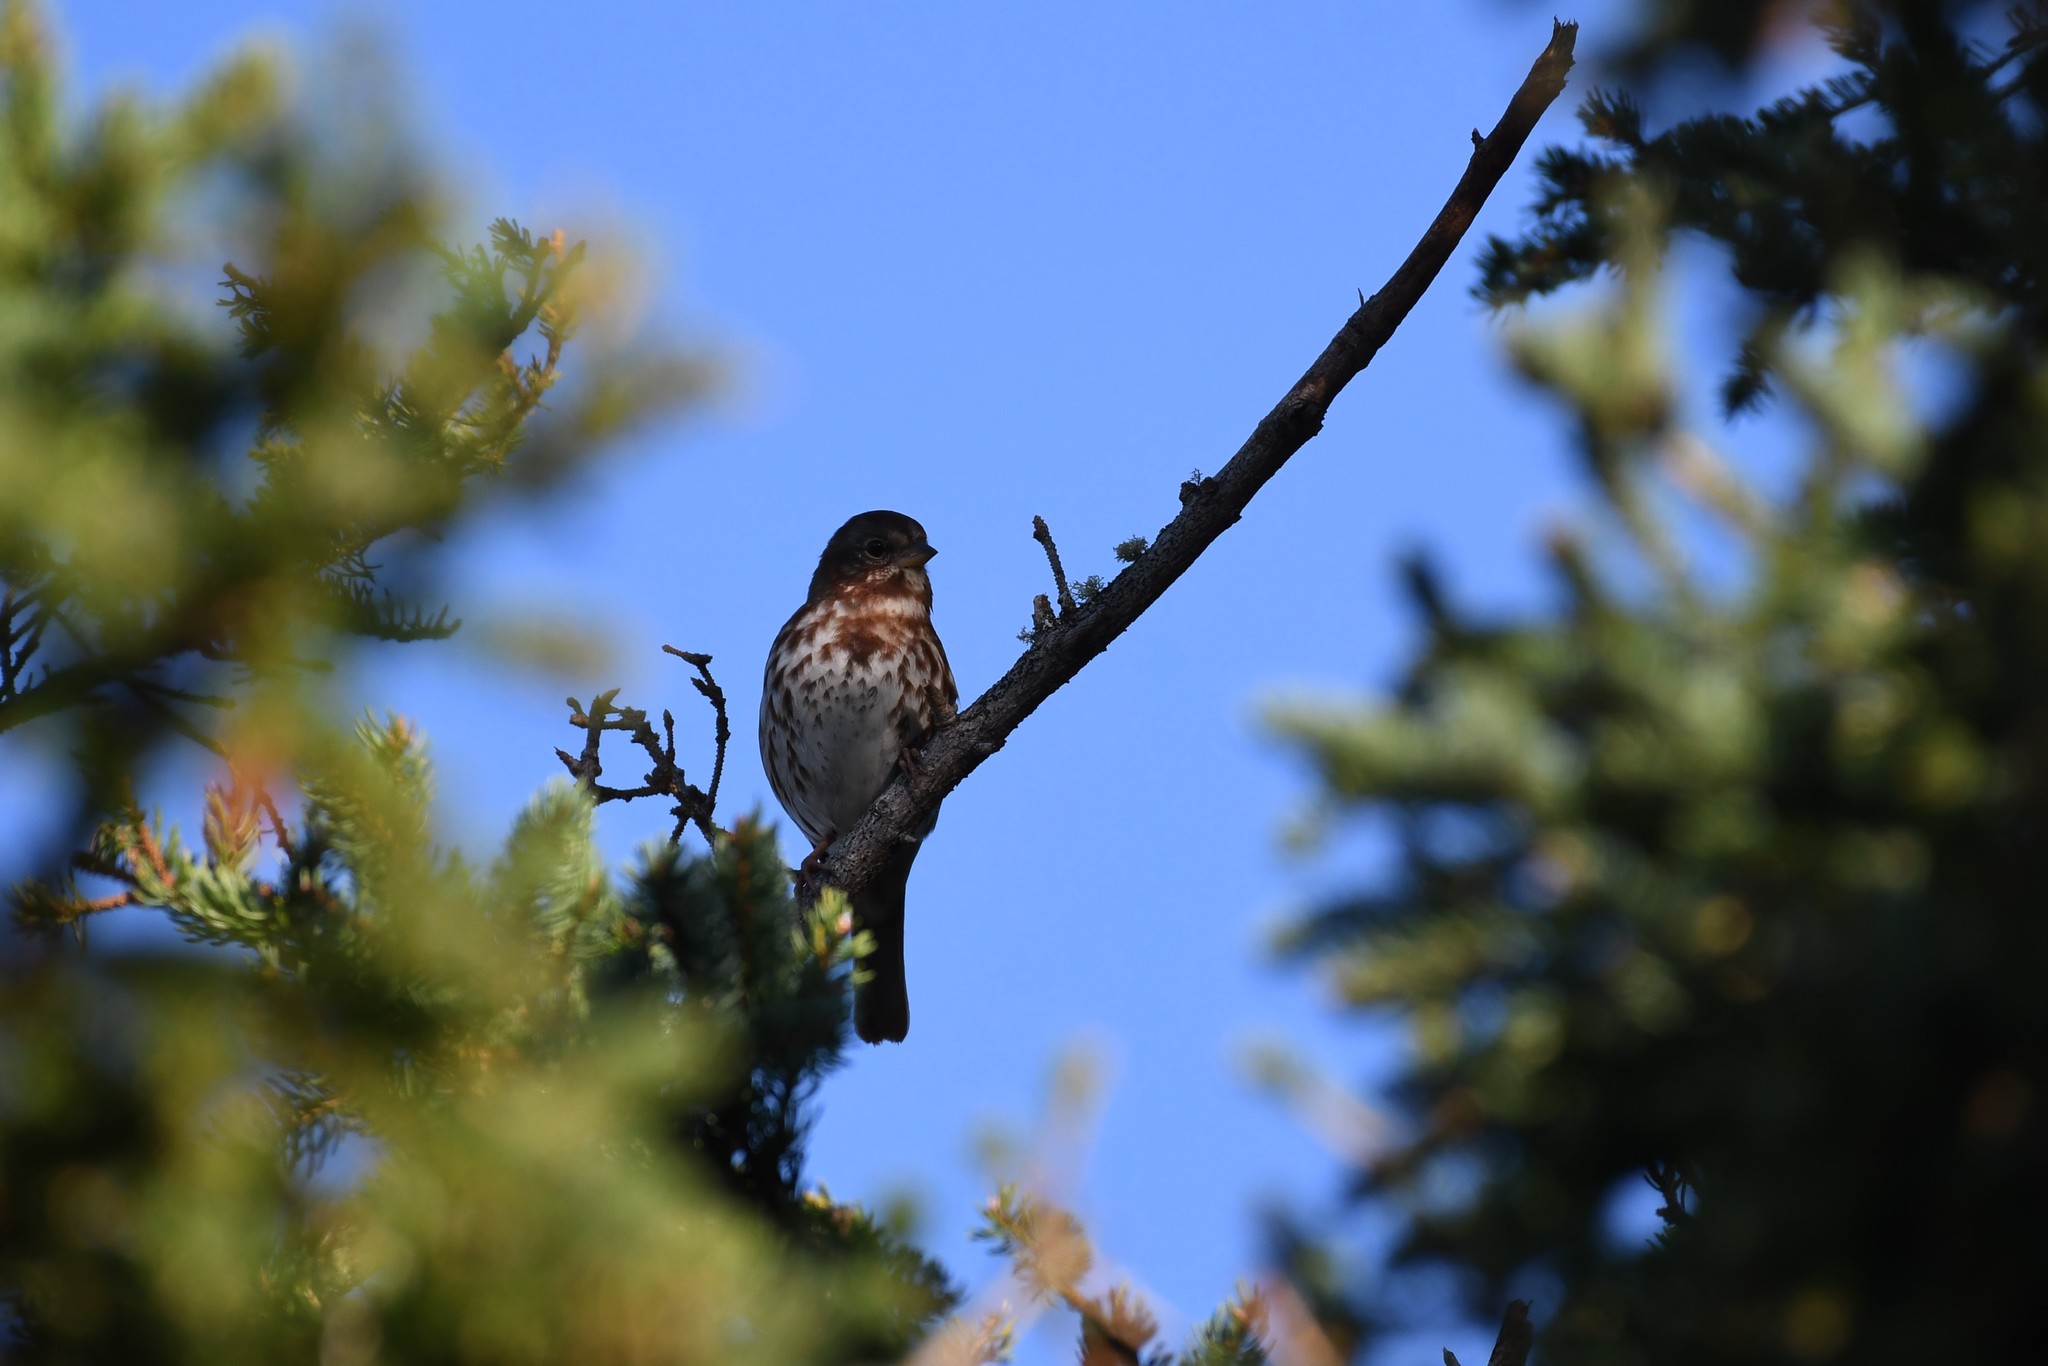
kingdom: Animalia
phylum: Chordata
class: Aves
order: Passeriformes
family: Passerellidae
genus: Passerella
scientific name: Passerella iliaca
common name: Fox sparrow
